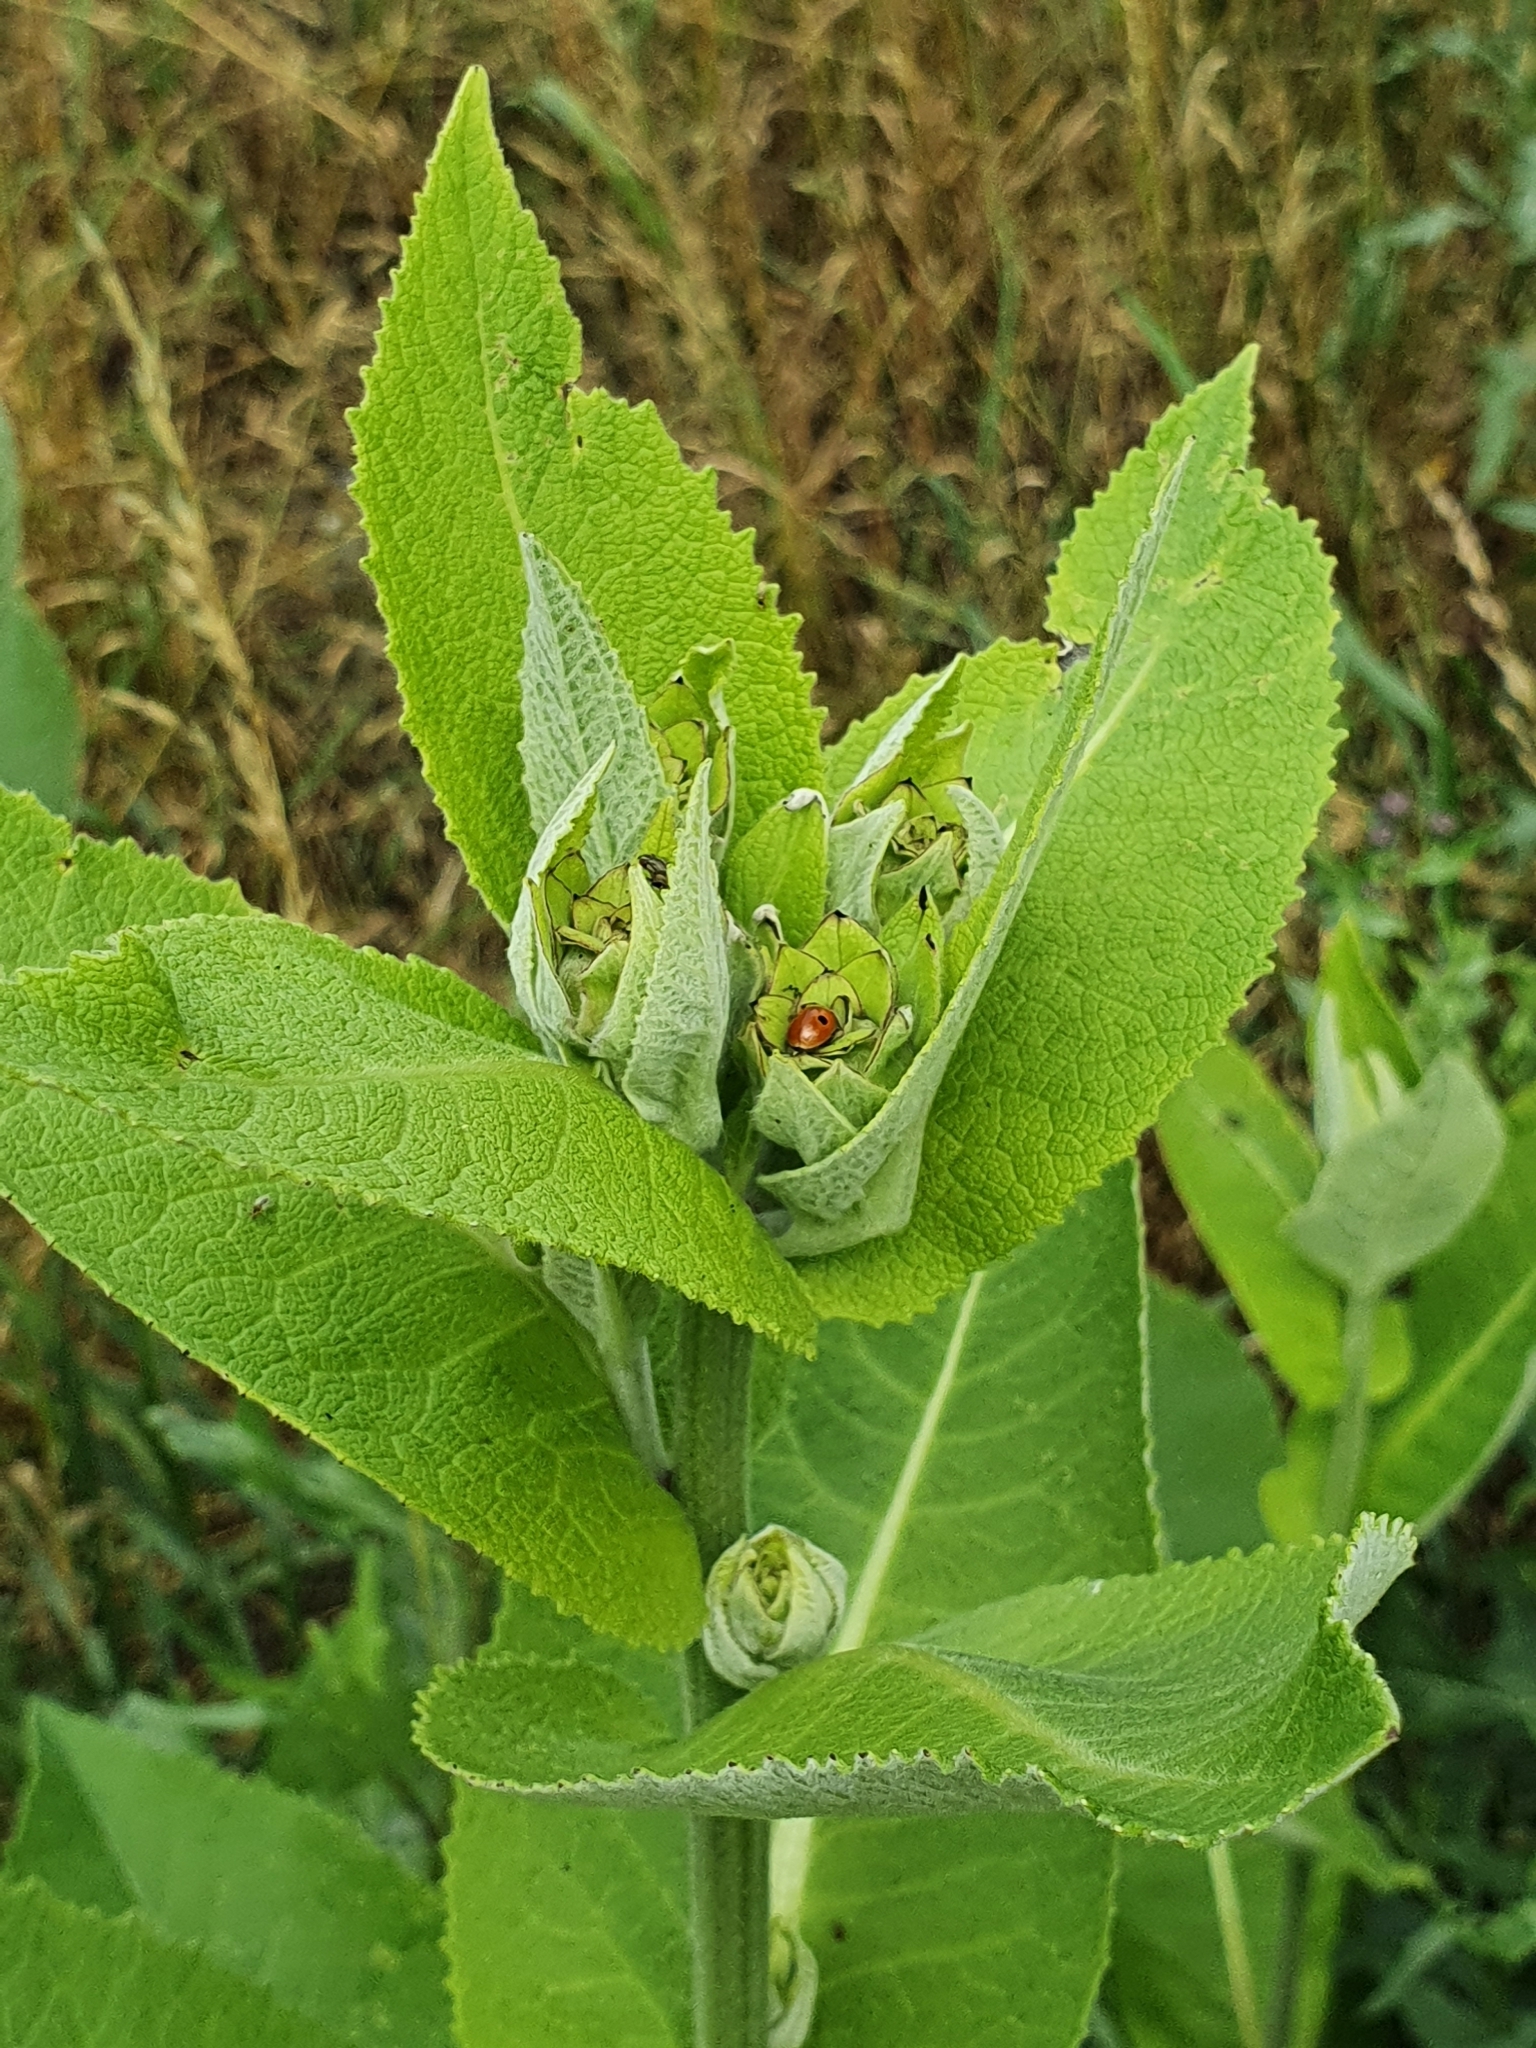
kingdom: Plantae
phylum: Tracheophyta
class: Magnoliopsida
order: Asterales
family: Asteraceae
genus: Inula
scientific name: Inula helenium
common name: Elecampane
